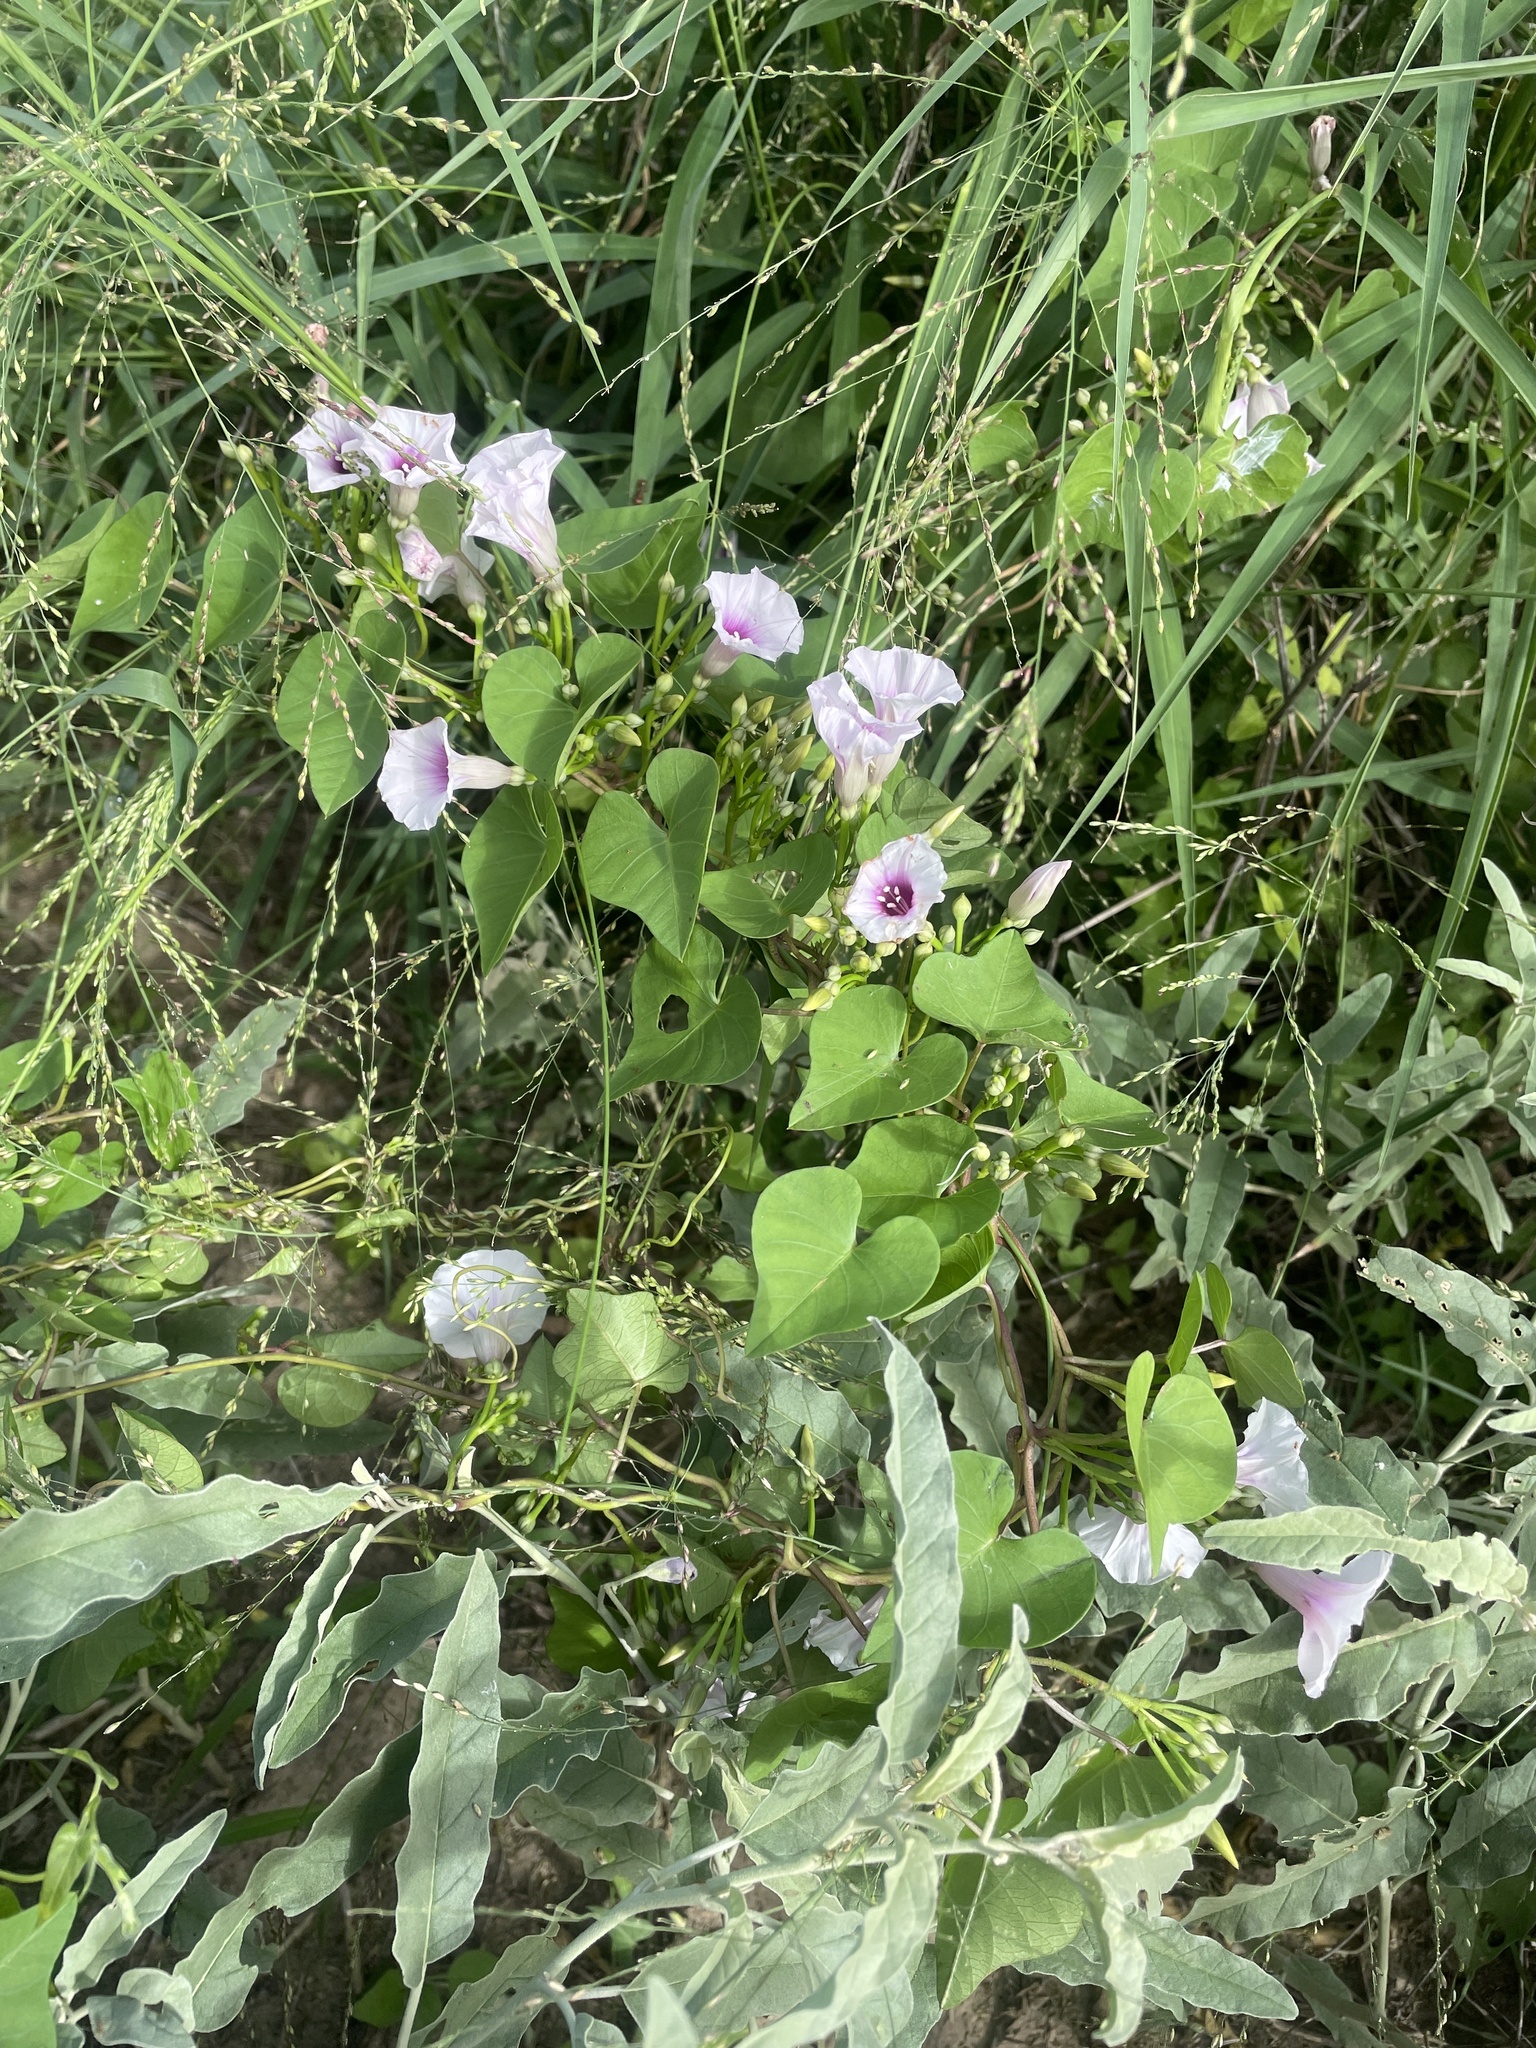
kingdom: Plantae
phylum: Tracheophyta
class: Magnoliopsida
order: Solanales
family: Convolvulaceae
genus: Ipomoea
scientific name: Ipomoea amnicola
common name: Redcenter morning-glory
